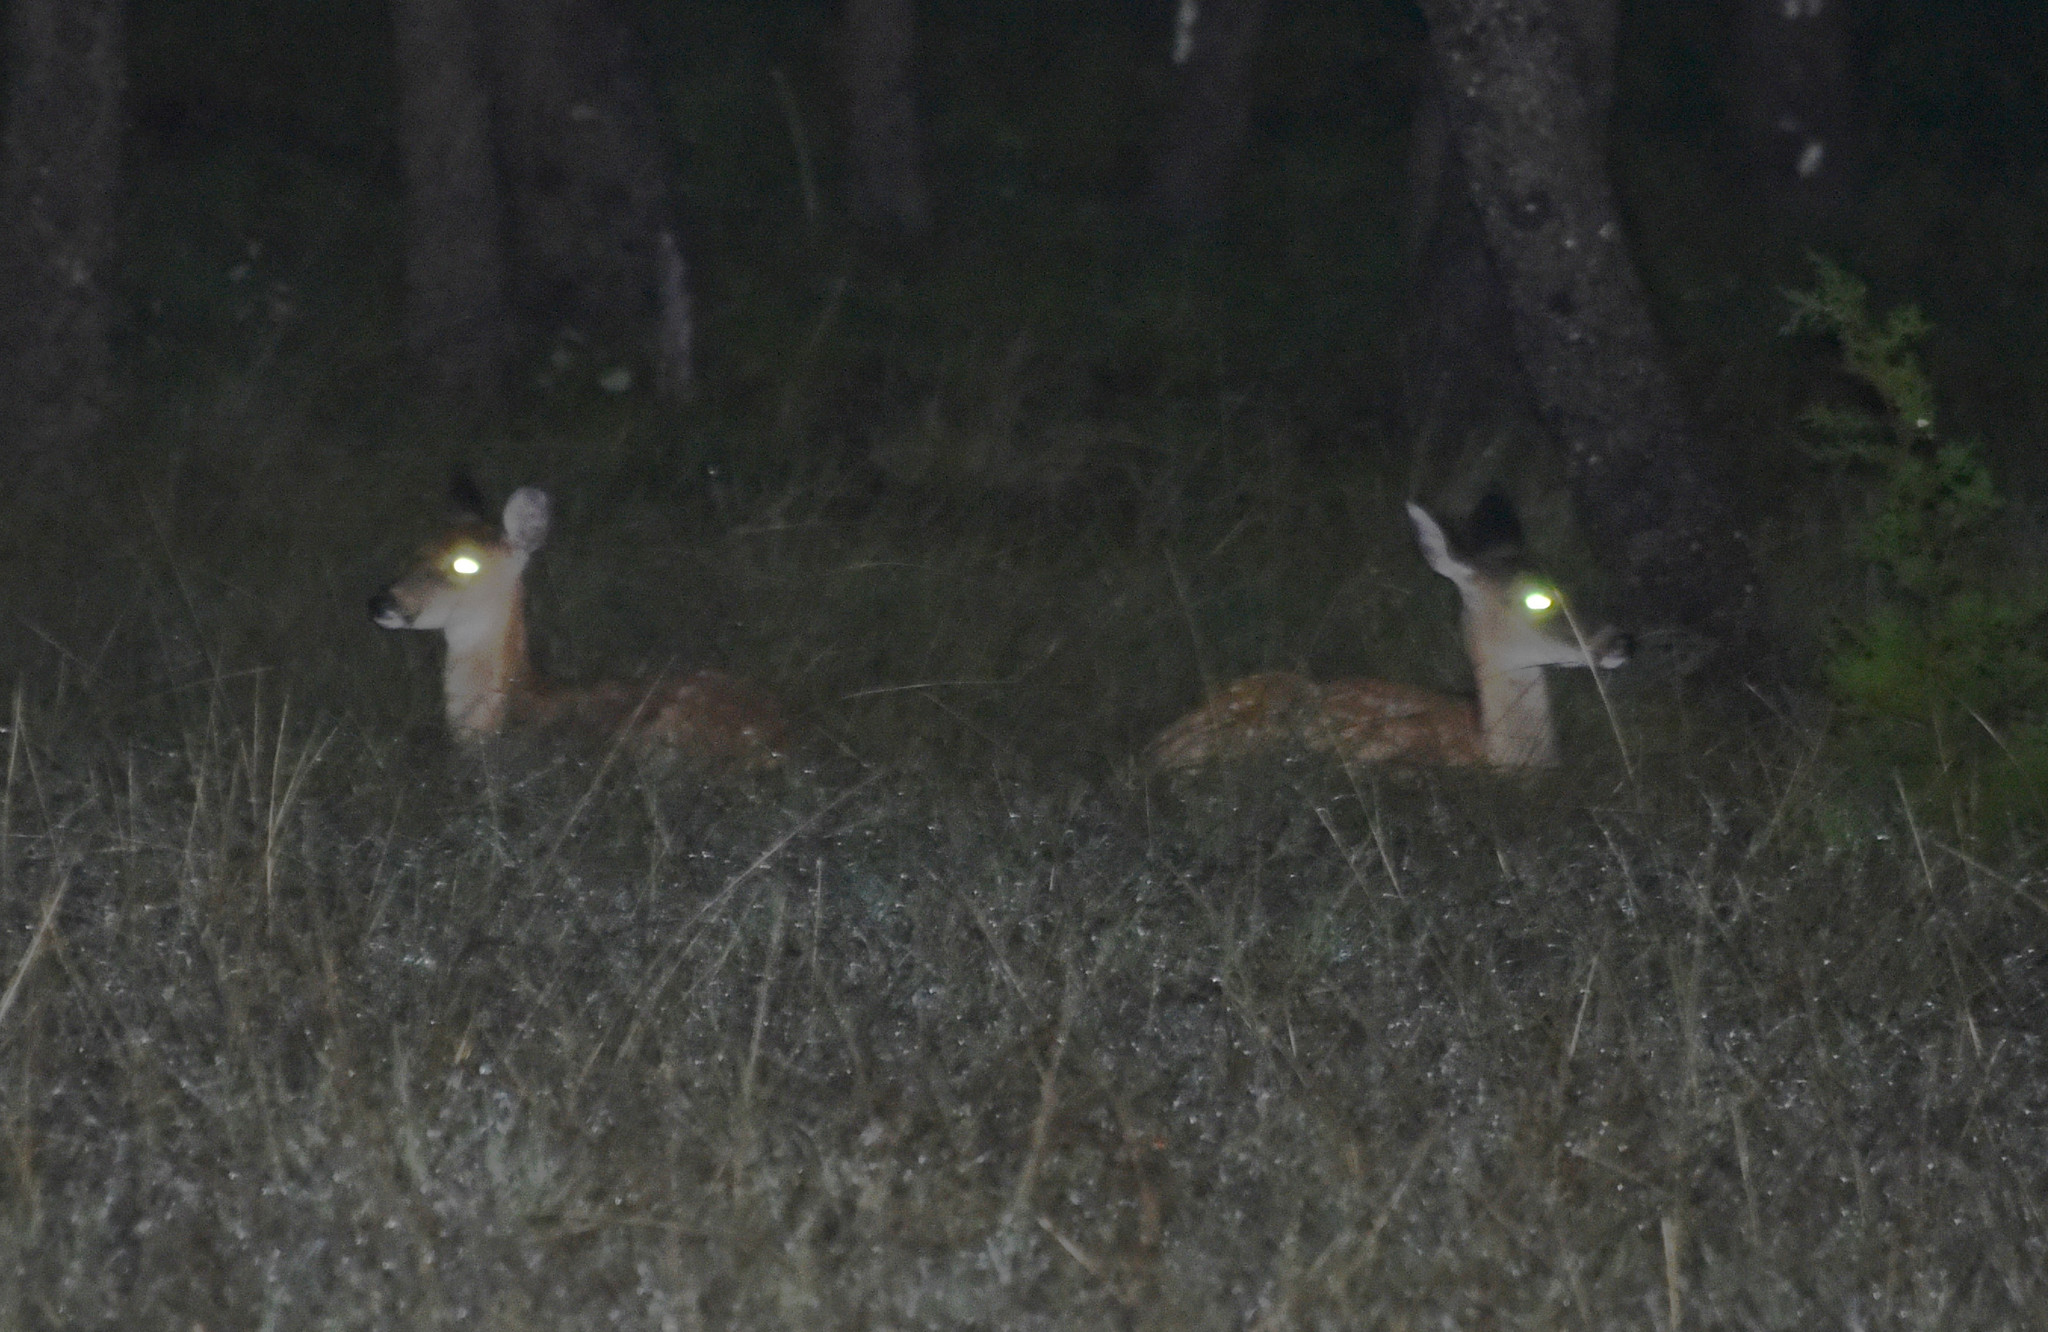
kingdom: Animalia
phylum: Chordata
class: Mammalia
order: Artiodactyla
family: Cervidae
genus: Odocoileus
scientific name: Odocoileus virginianus
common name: White-tailed deer
